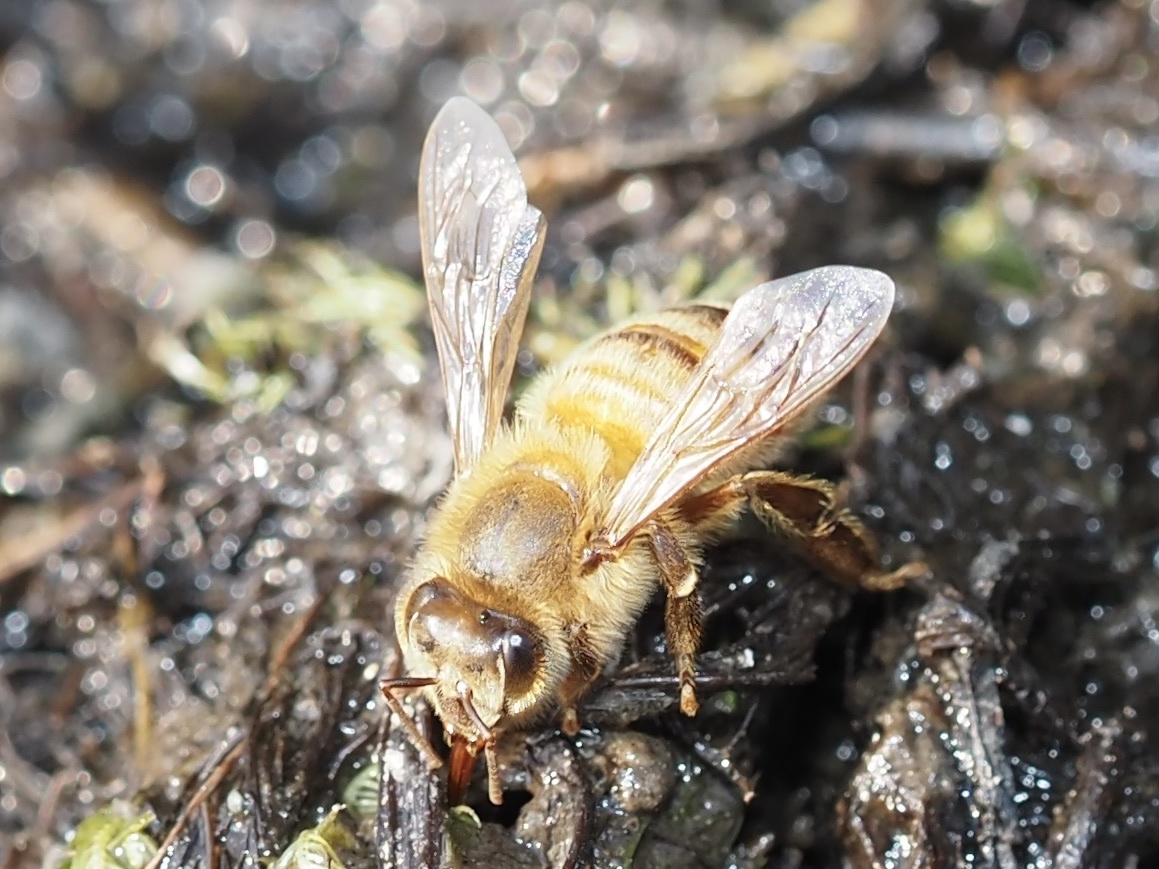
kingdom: Animalia
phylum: Arthropoda
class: Insecta
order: Hymenoptera
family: Apidae
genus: Apis
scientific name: Apis mellifera
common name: Honey bee
